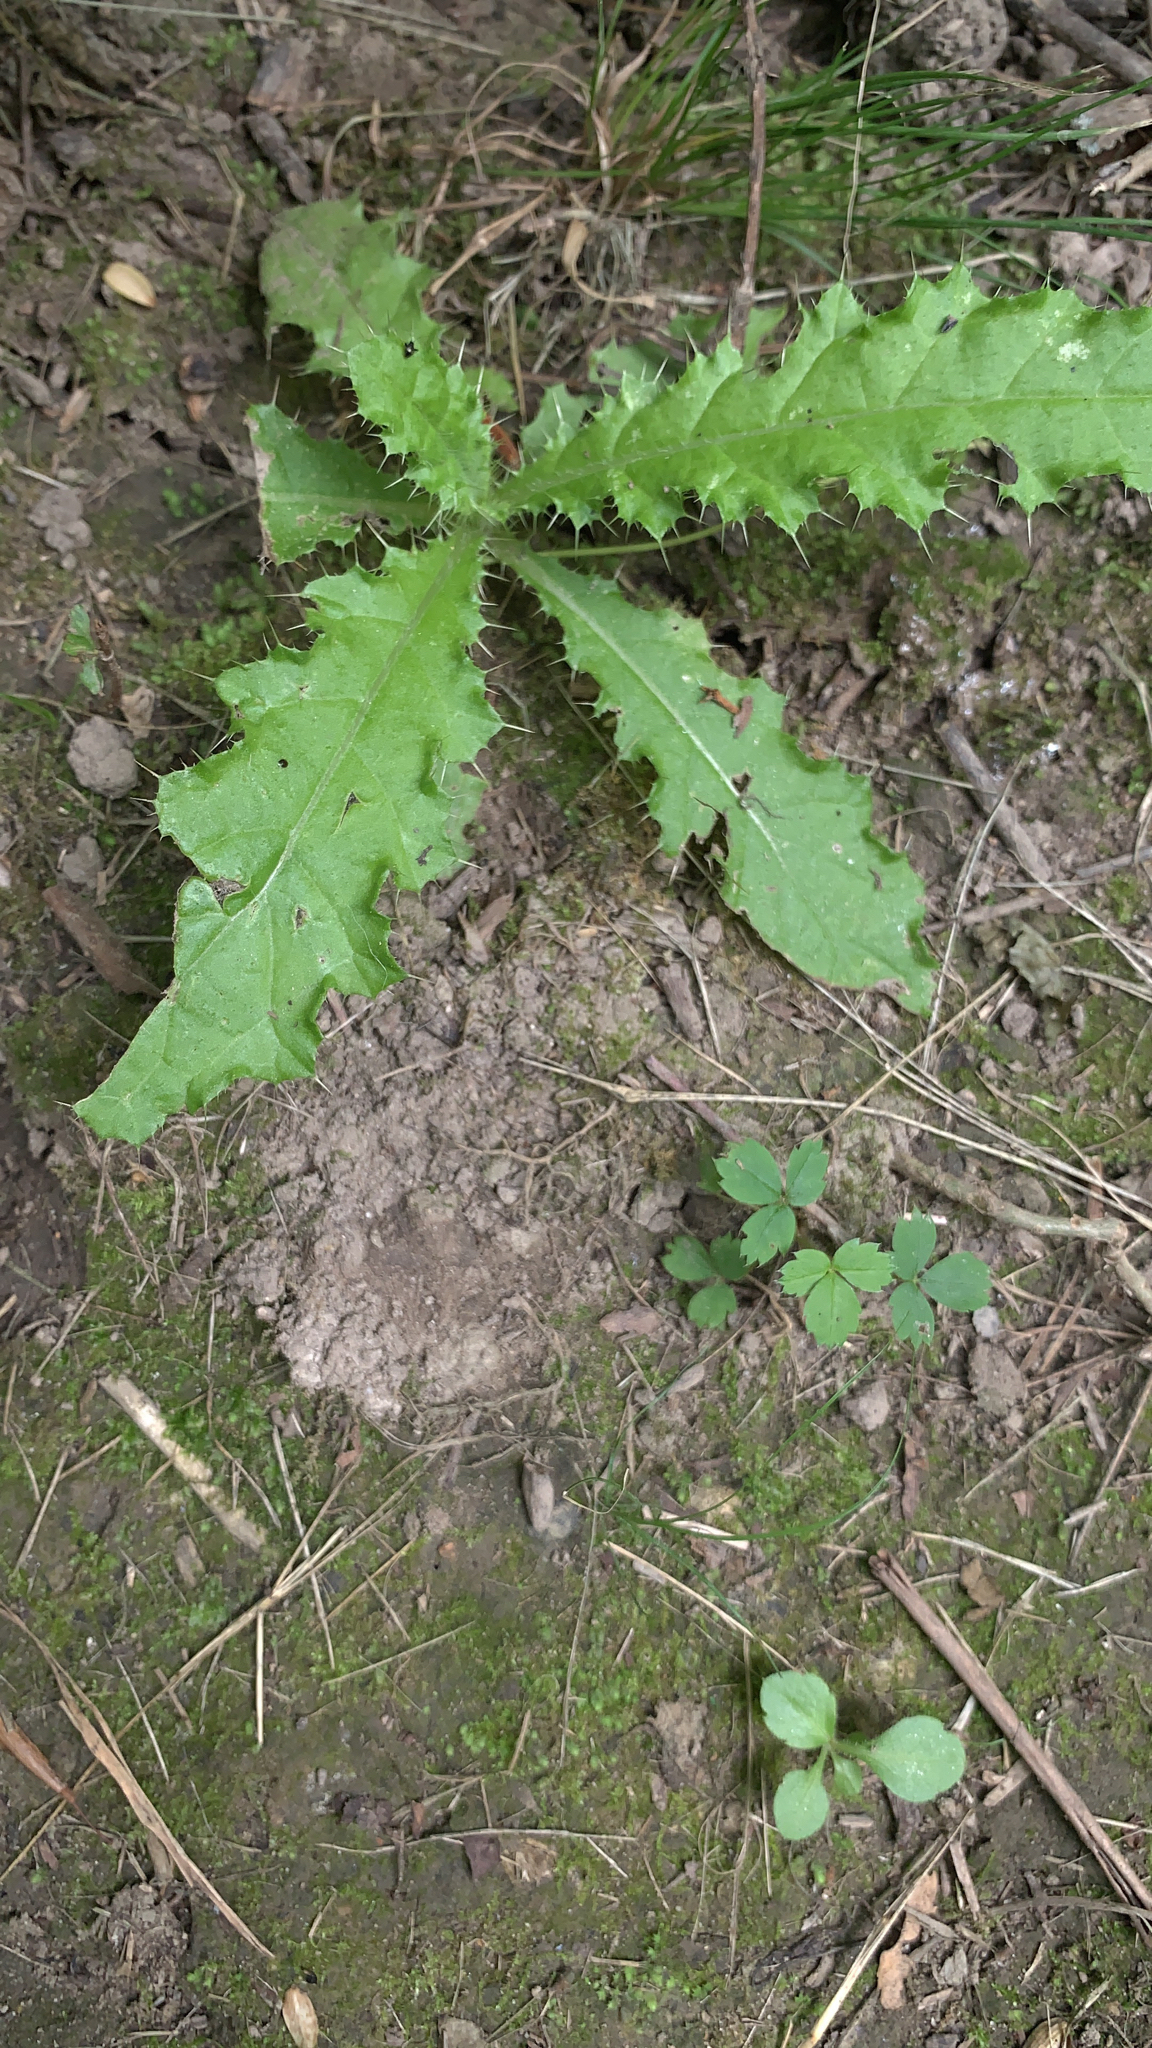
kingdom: Plantae
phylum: Tracheophyta
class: Magnoliopsida
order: Asterales
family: Asteraceae
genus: Cirsium
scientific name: Cirsium arvense
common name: Creeping thistle
